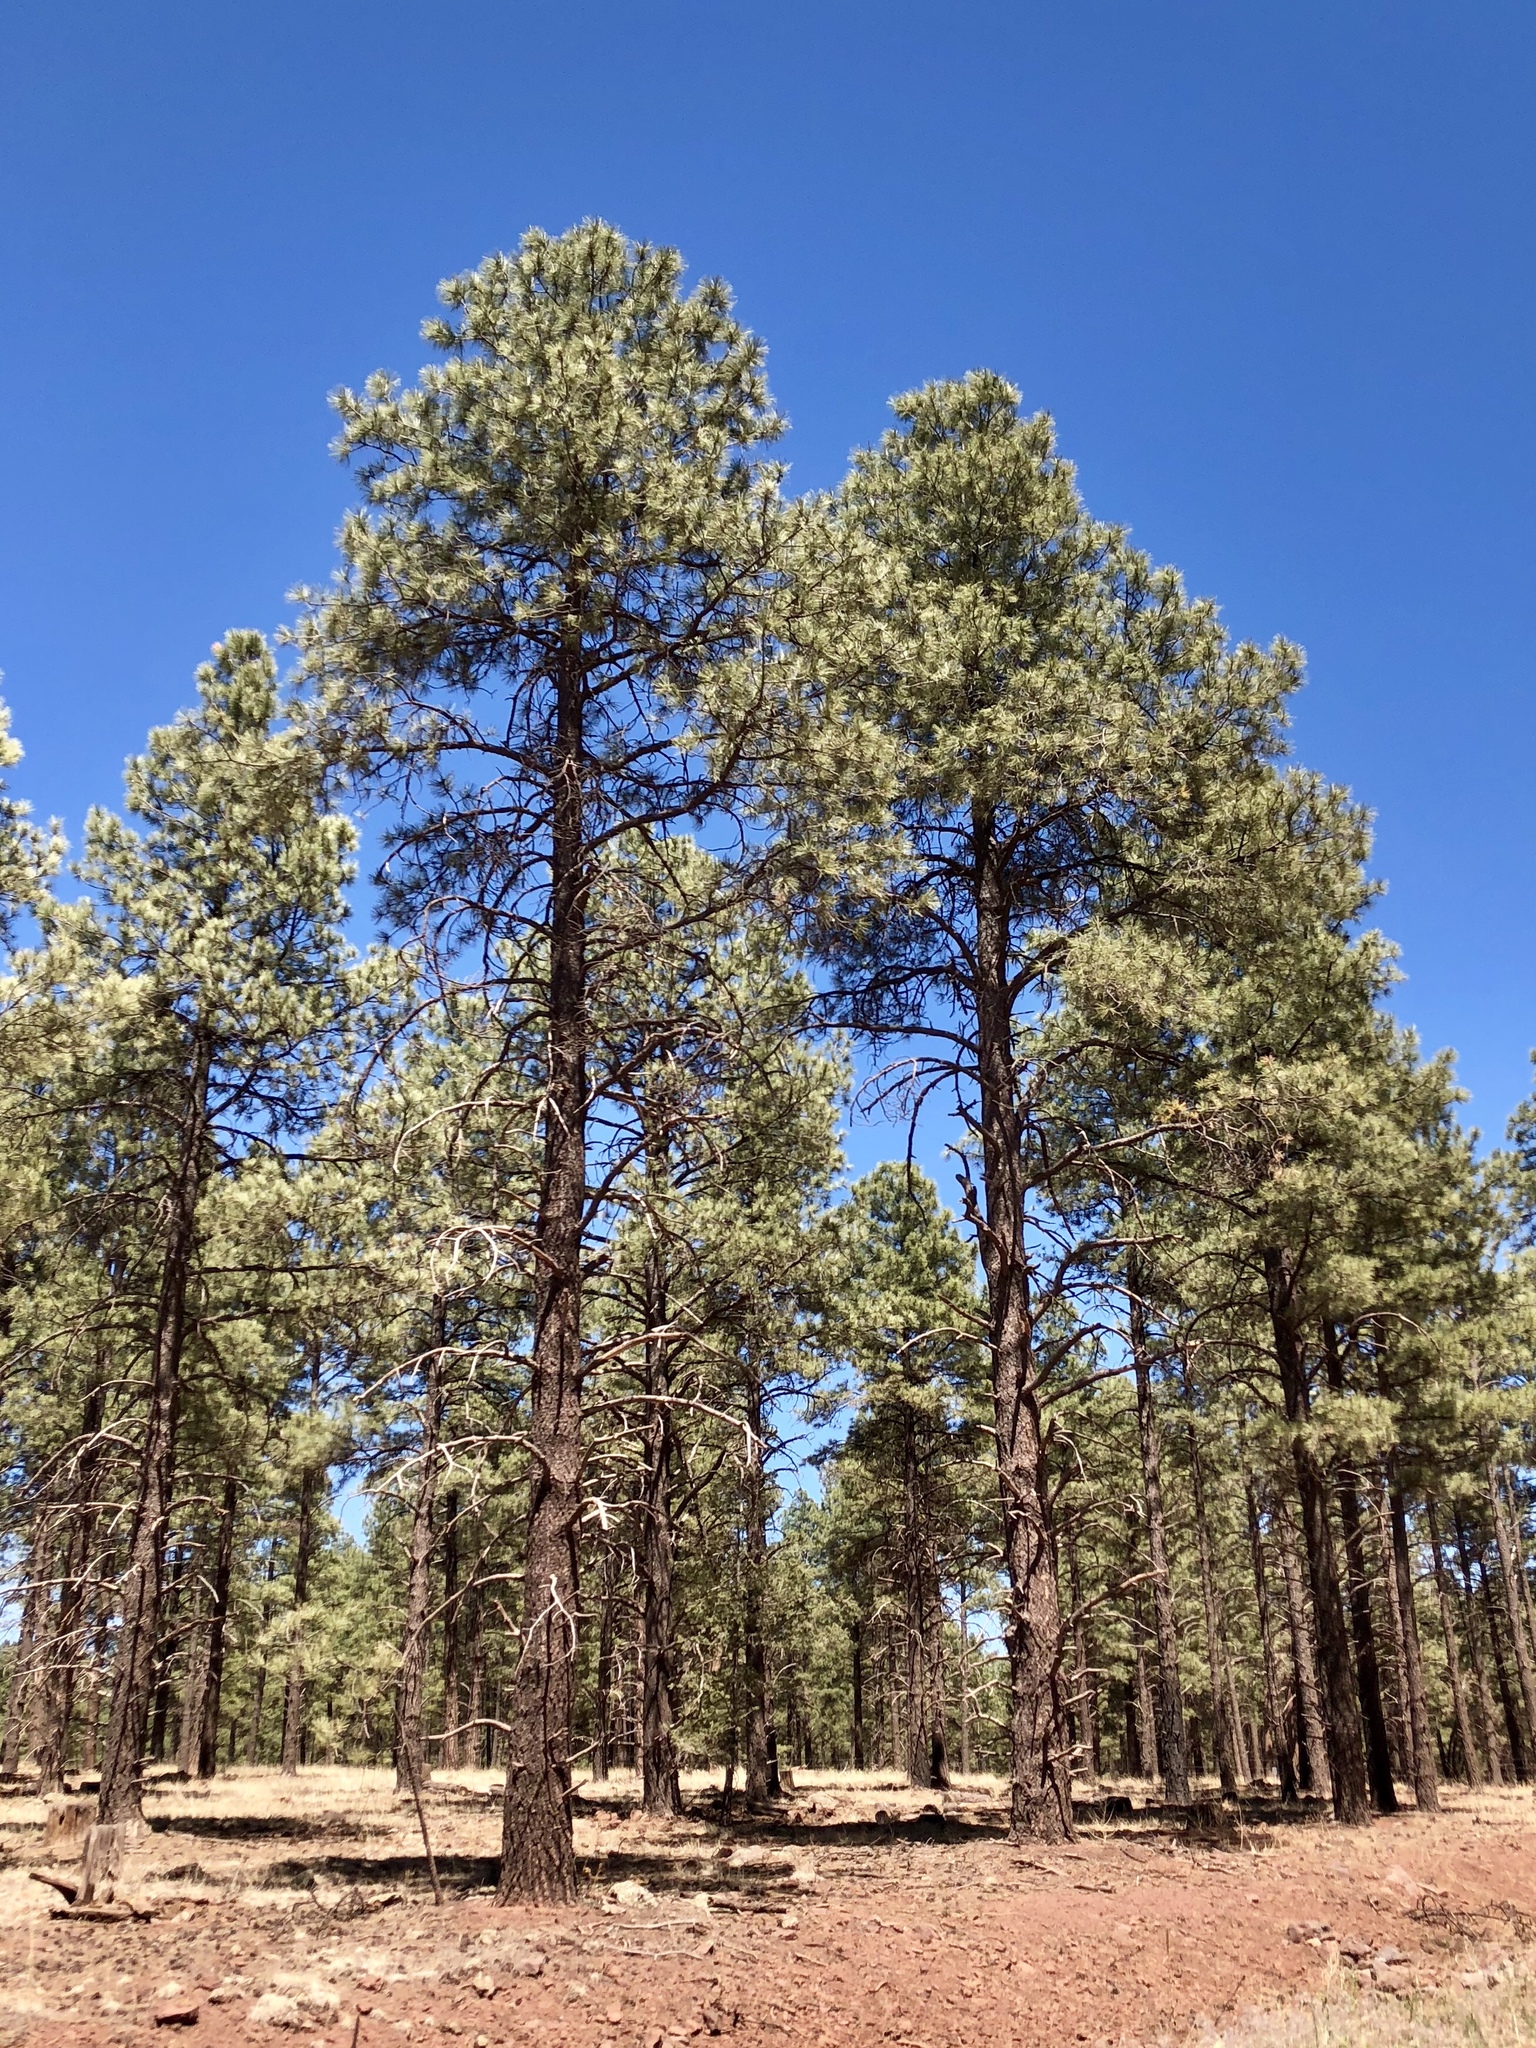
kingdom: Plantae
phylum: Tracheophyta
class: Pinopsida
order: Pinales
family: Pinaceae
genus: Pinus
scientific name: Pinus ponderosa
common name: Western yellow-pine
